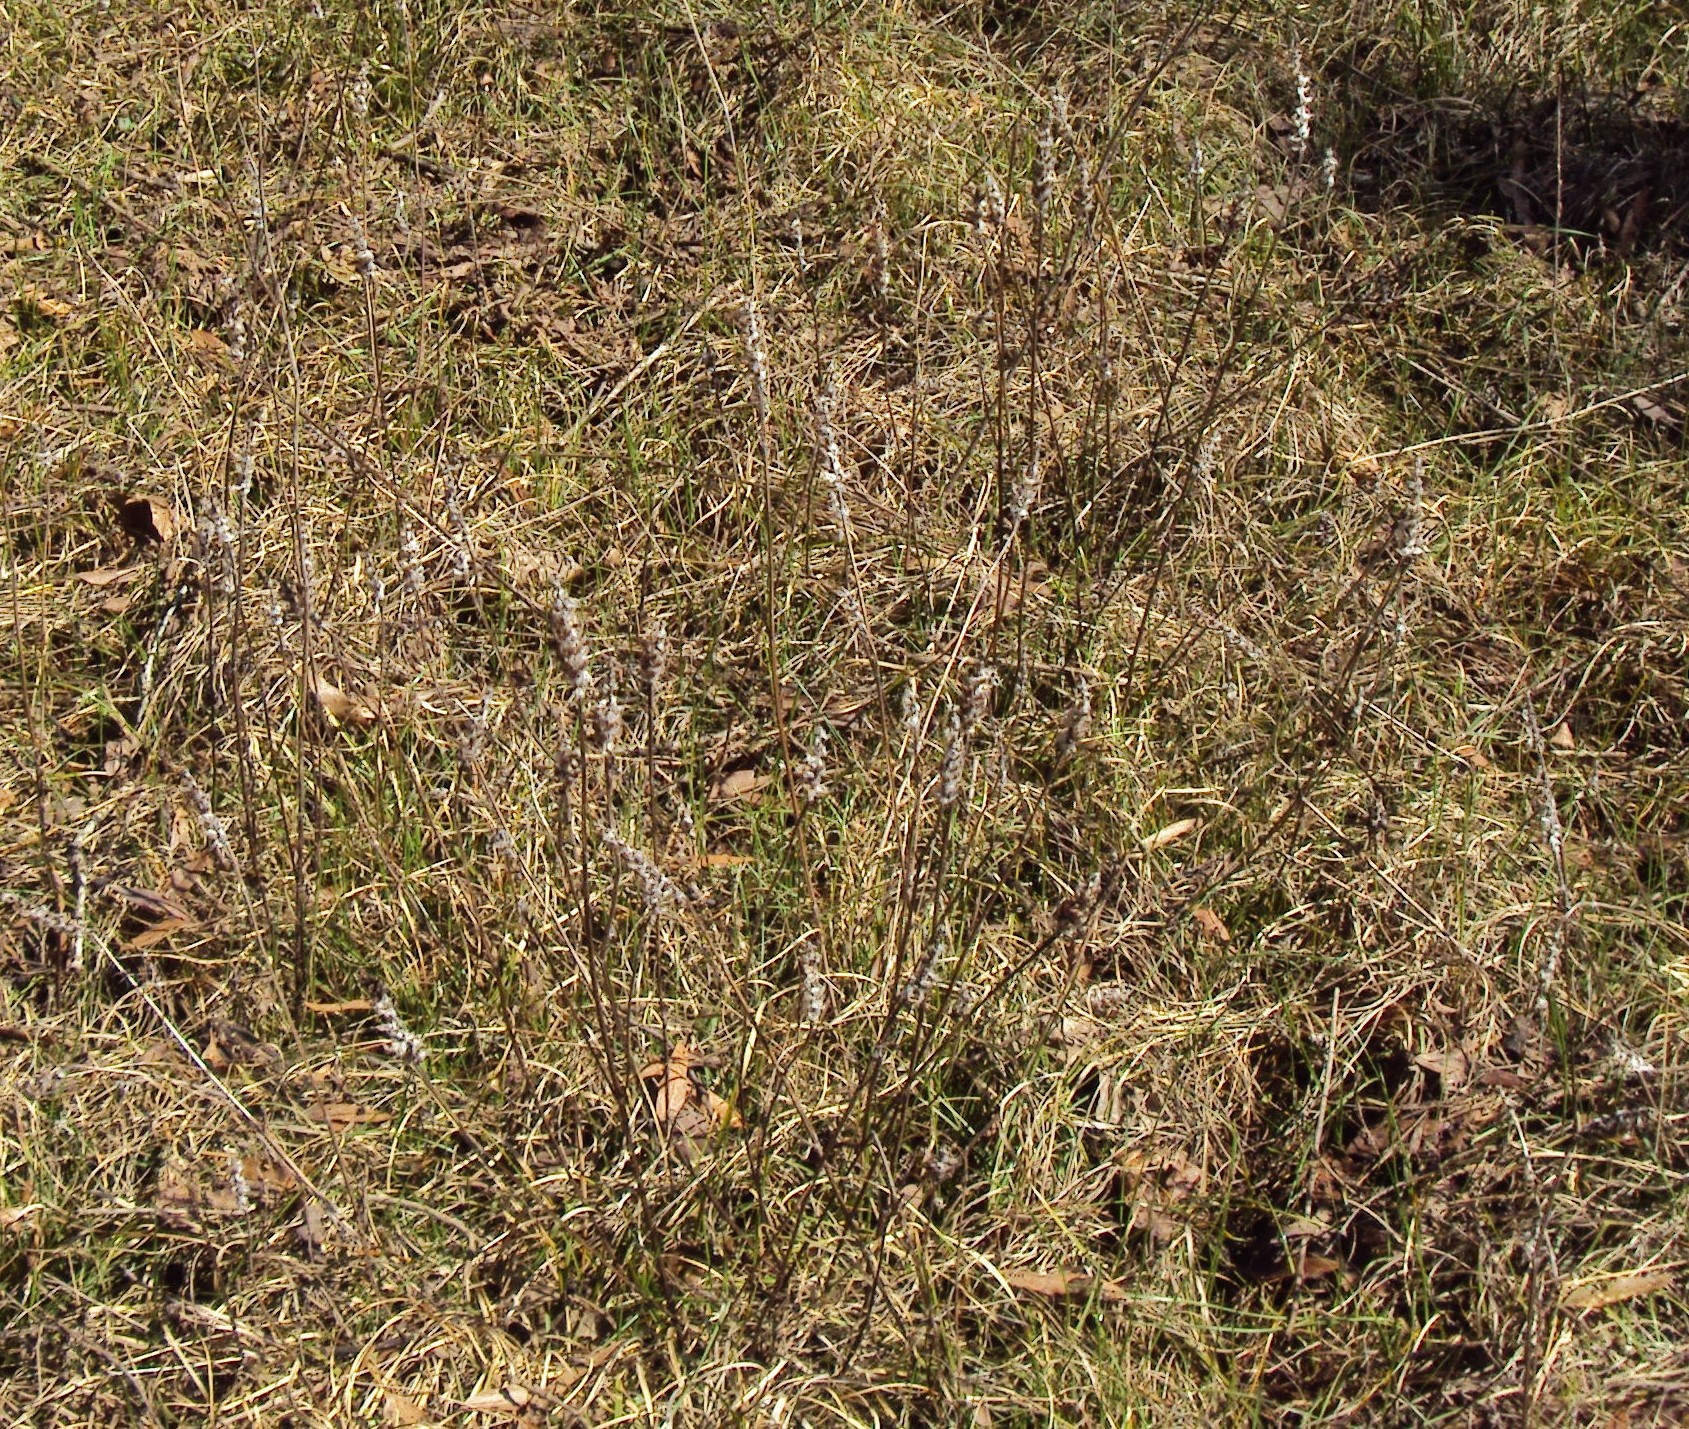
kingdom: Plantae
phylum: Tracheophyta
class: Magnoliopsida
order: Lamiales
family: Lamiaceae
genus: Prunella
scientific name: Prunella vulgaris
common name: Heal-all
